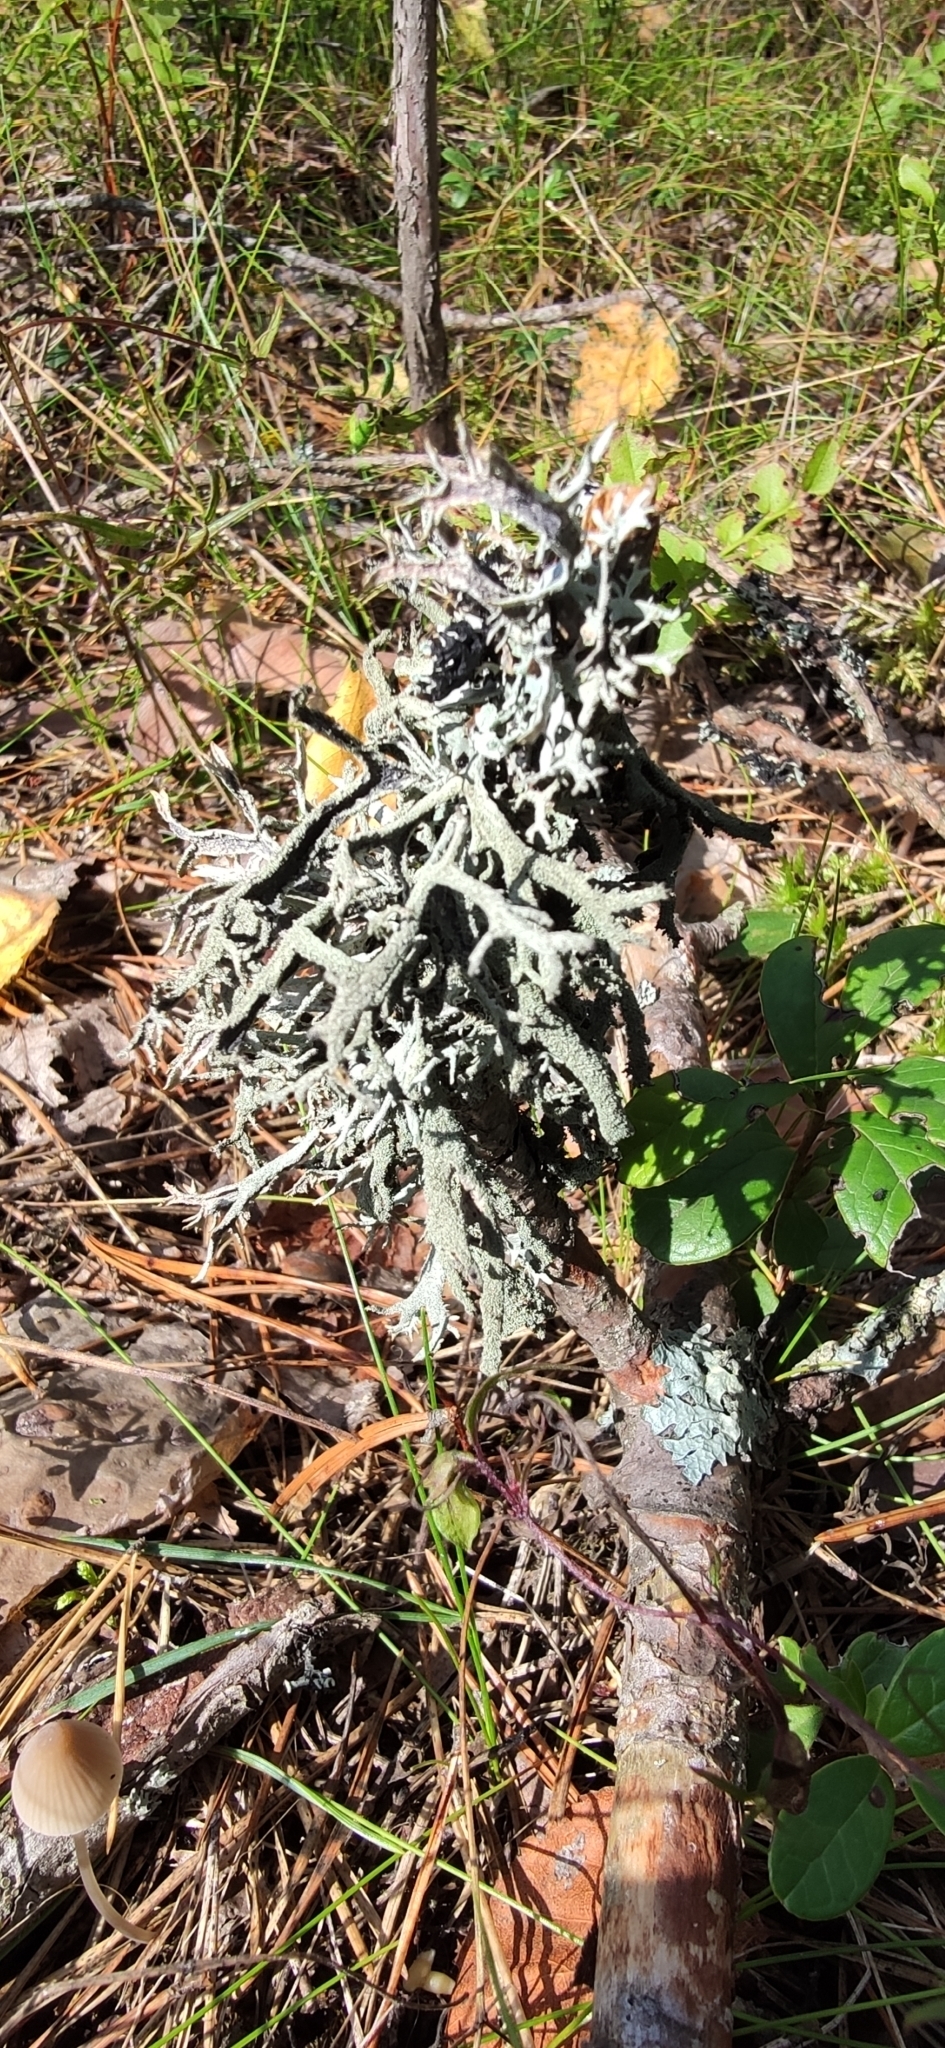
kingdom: Fungi
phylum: Ascomycota
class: Lecanoromycetes
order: Lecanorales
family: Parmeliaceae
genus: Pseudevernia
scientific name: Pseudevernia furfuracea
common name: Tree moss
